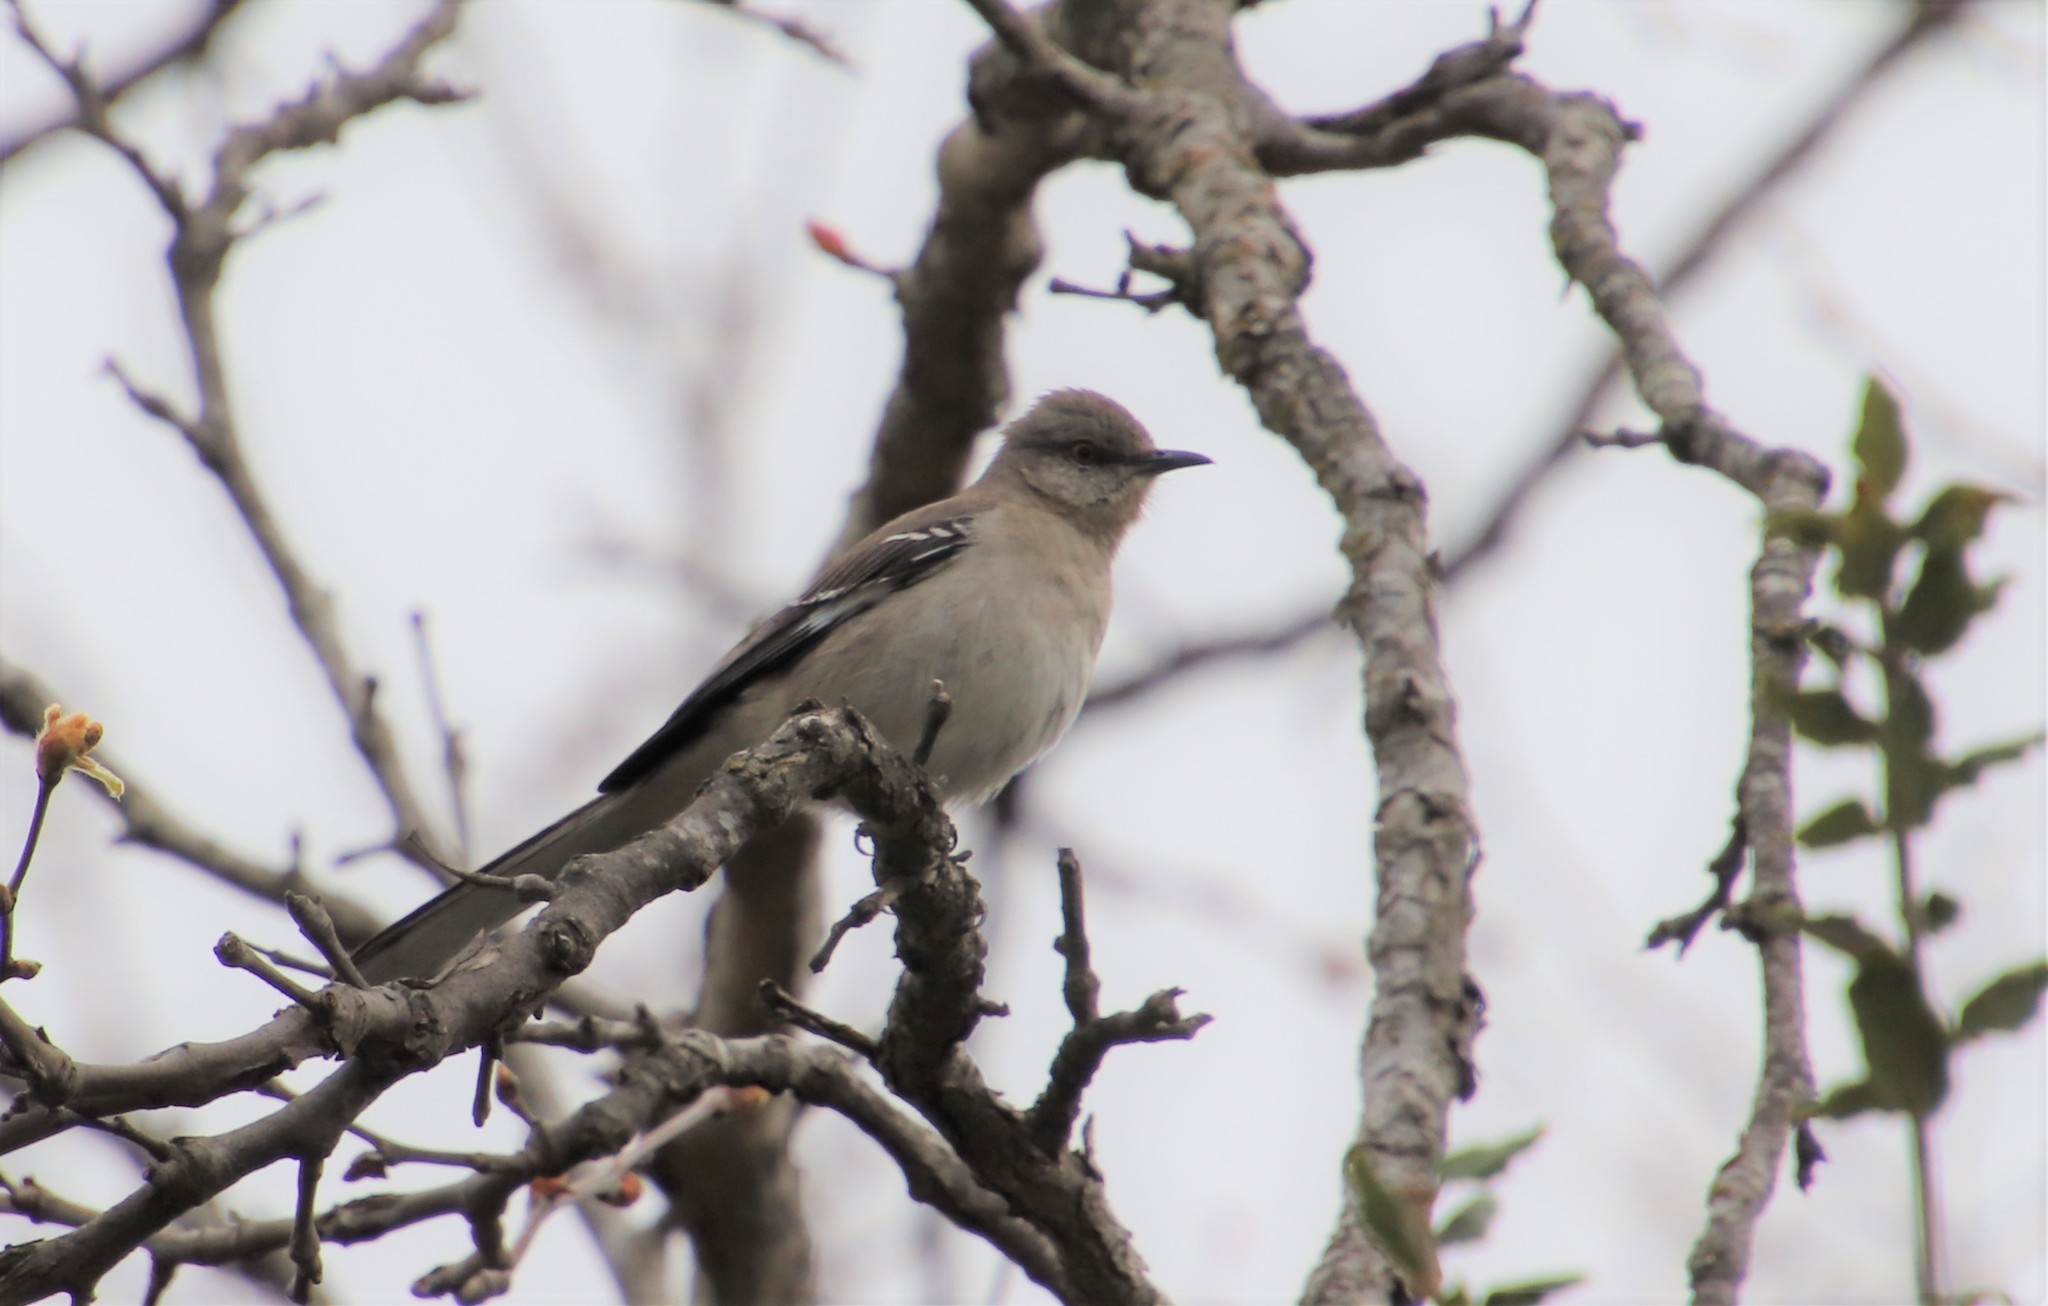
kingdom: Animalia
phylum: Chordata
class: Aves
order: Passeriformes
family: Mimidae
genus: Mimus
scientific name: Mimus polyglottos
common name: Northern mockingbird
